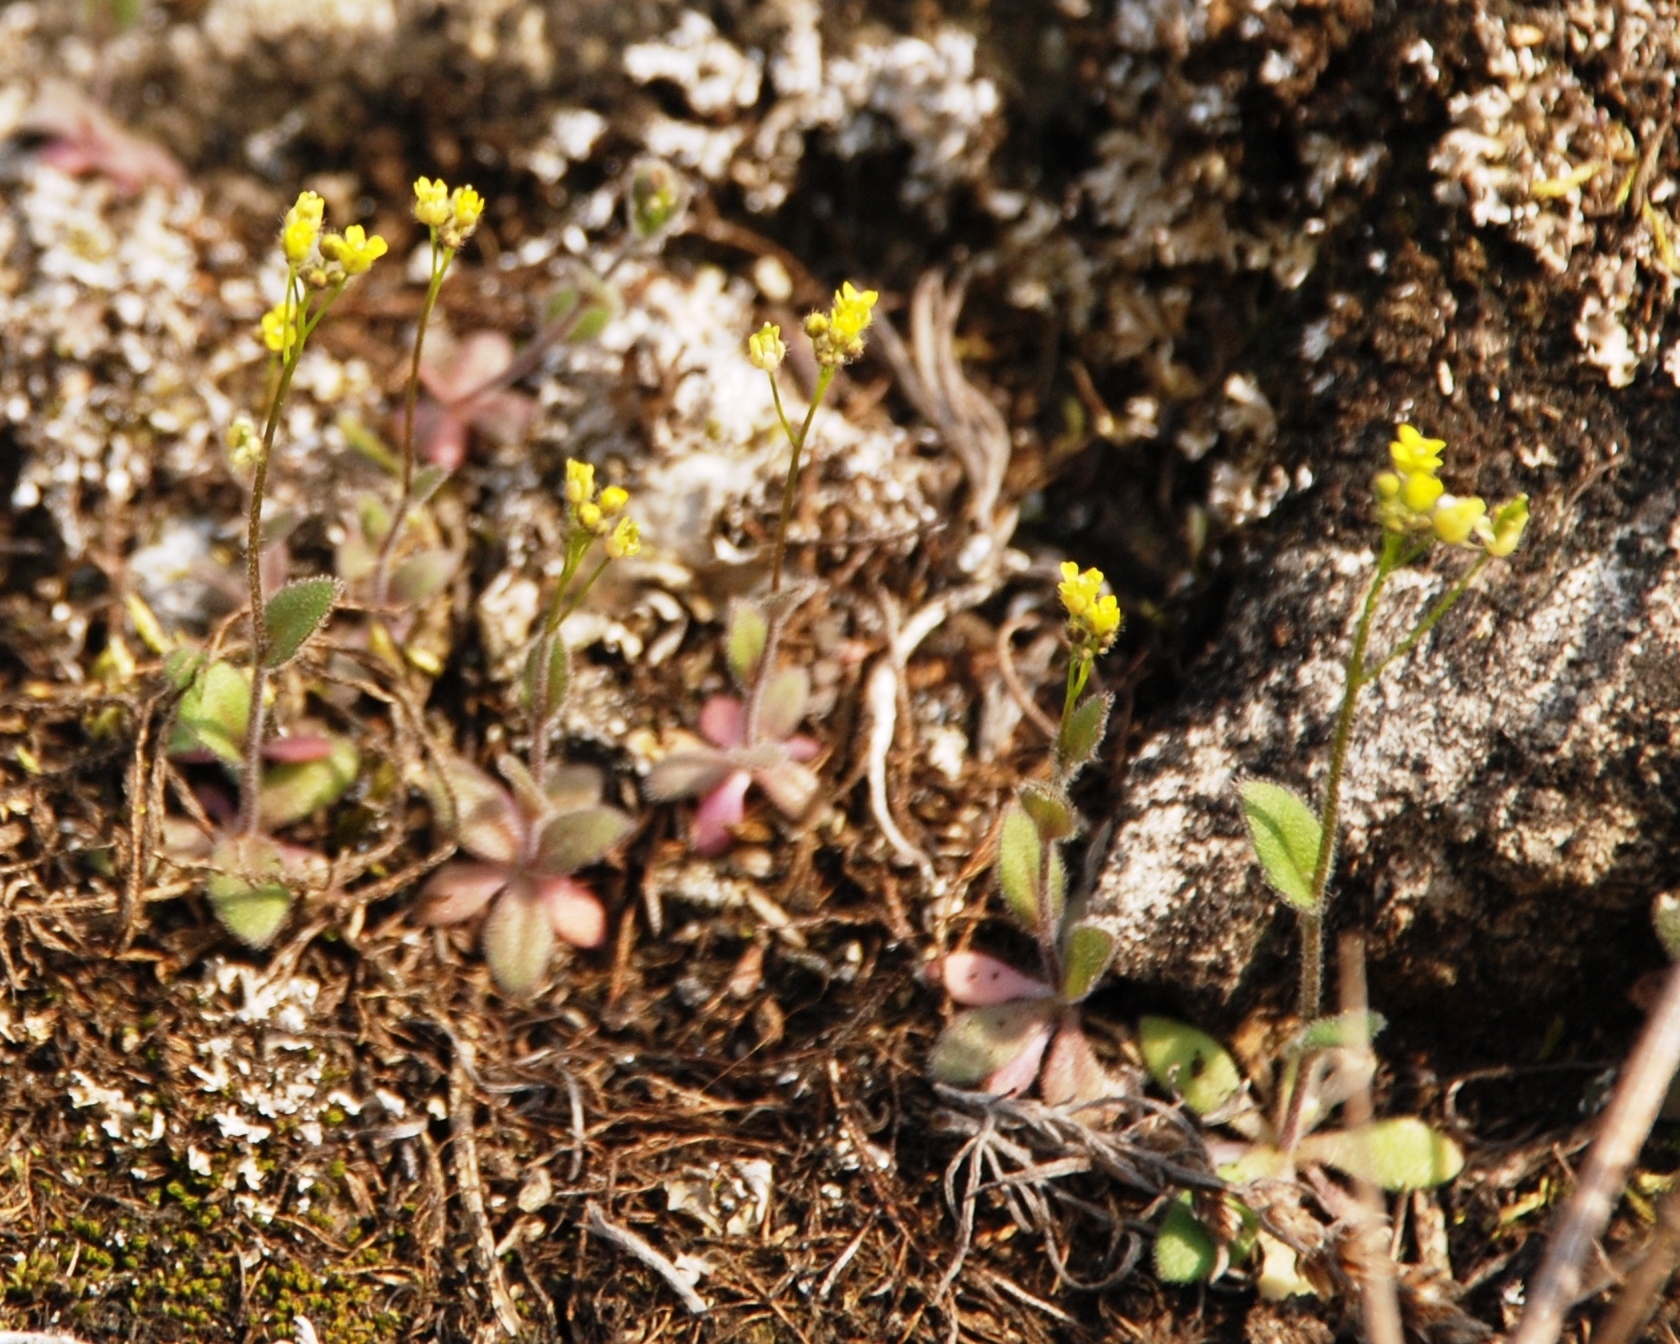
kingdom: Plantae
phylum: Tracheophyta
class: Magnoliopsida
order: Brassicales
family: Brassicaceae
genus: Draba
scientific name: Draba nemorosa
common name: Wood whitlow-grass
